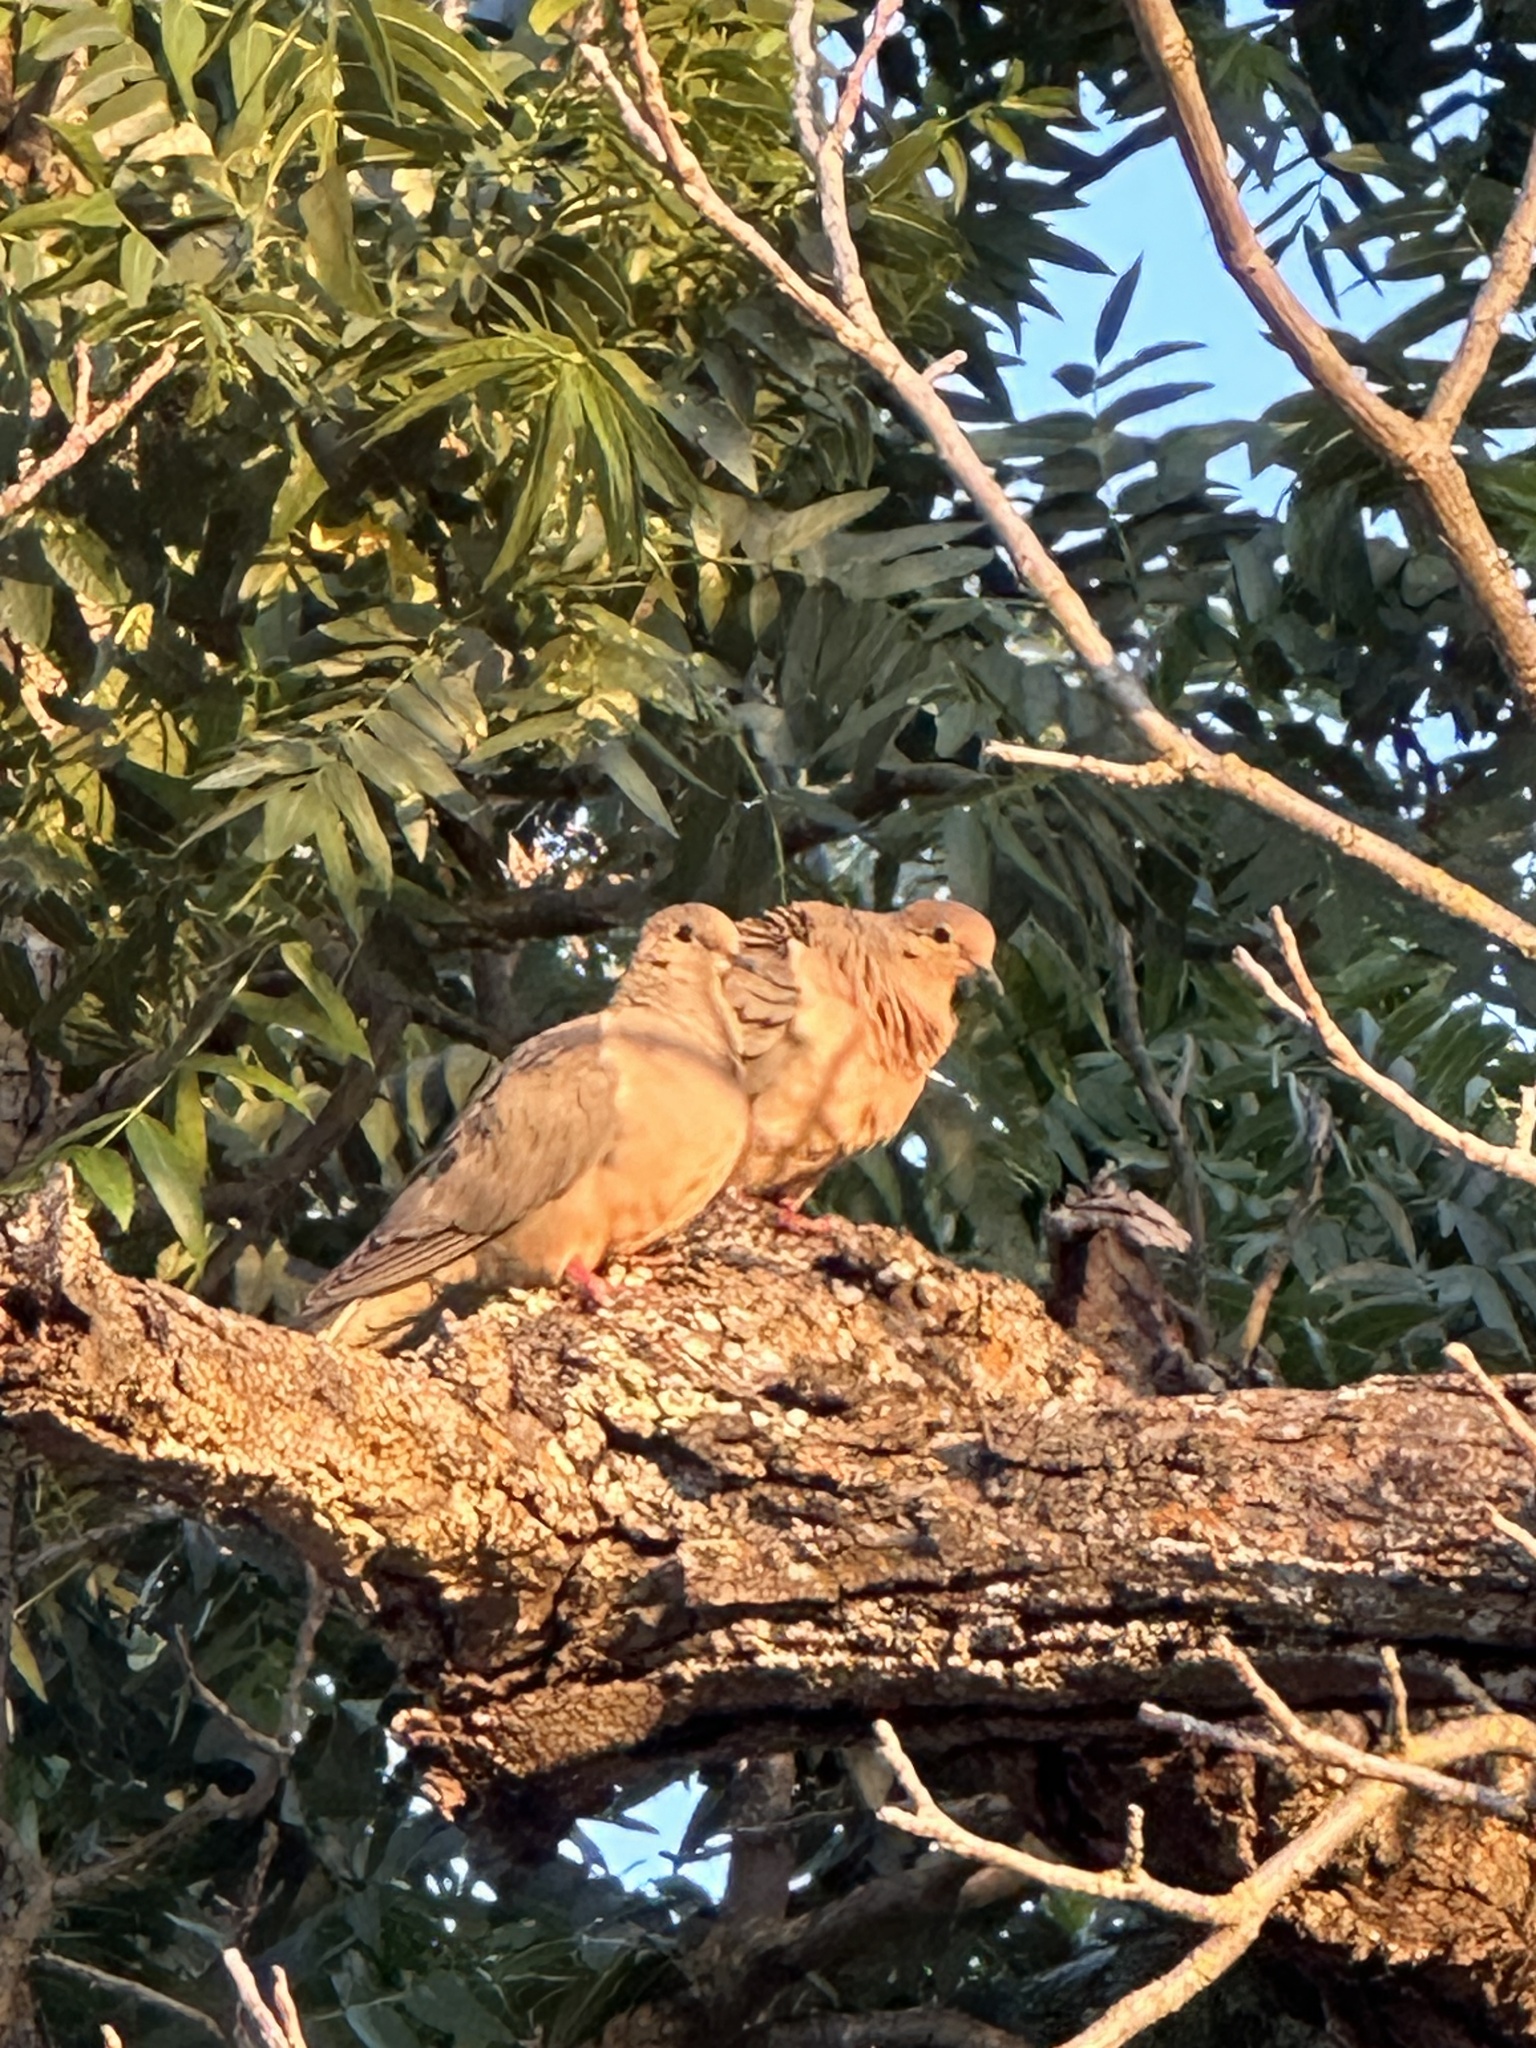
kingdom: Animalia
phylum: Chordata
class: Aves
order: Columbiformes
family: Columbidae
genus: Zenaida
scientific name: Zenaida macroura
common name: Mourning dove
